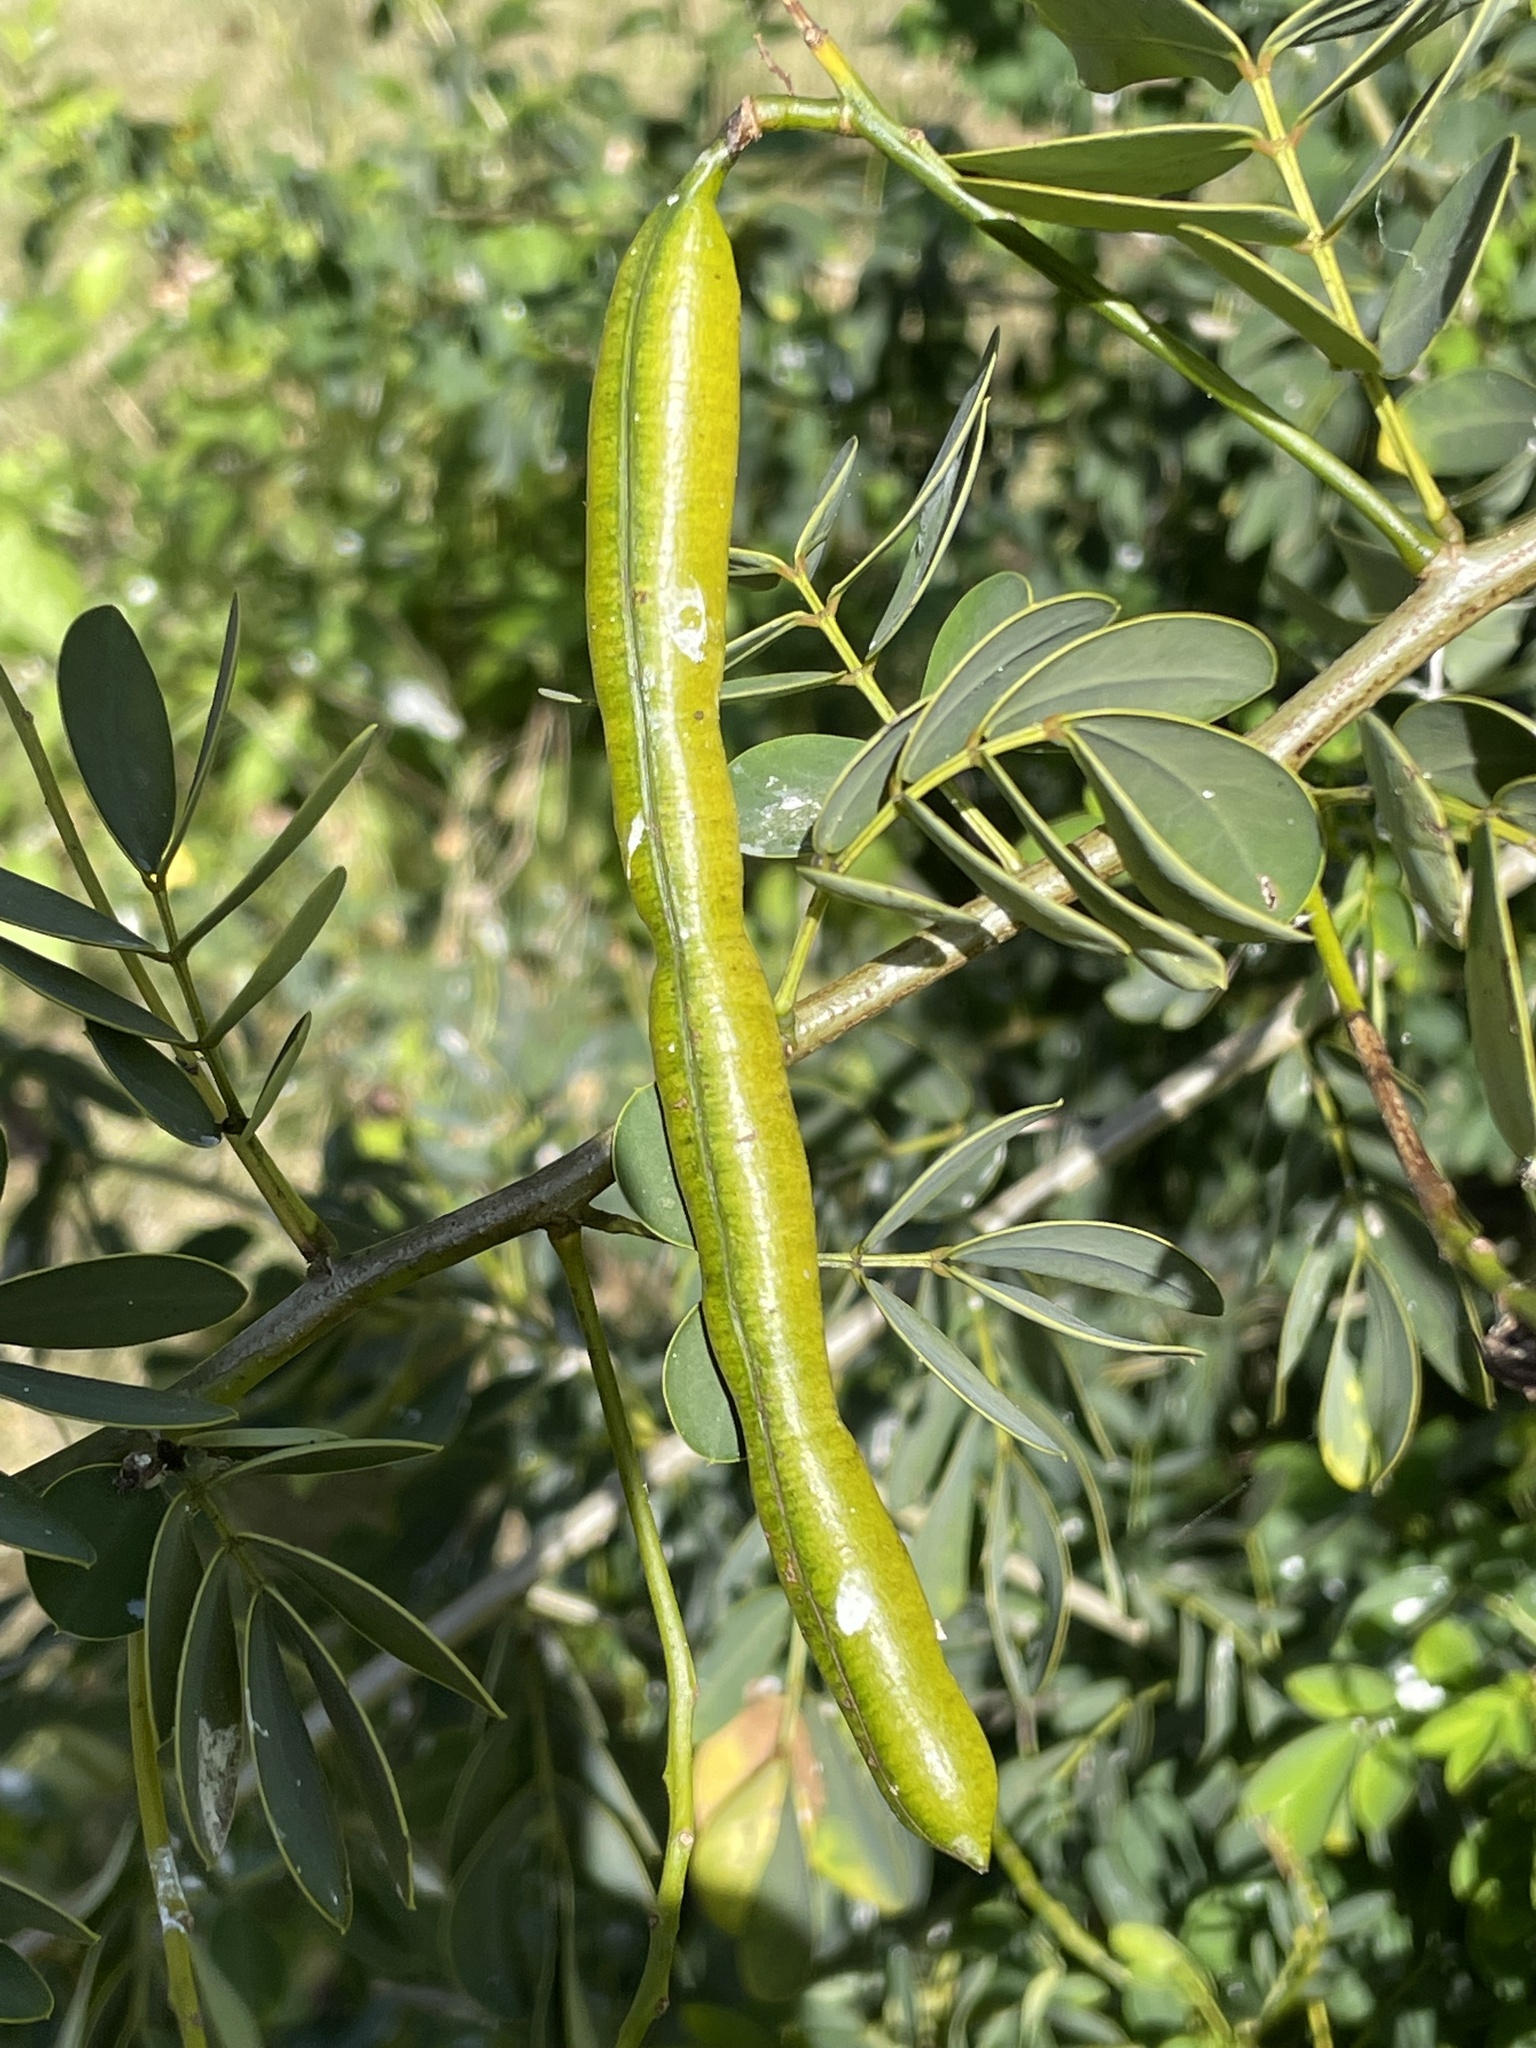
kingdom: Plantae
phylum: Tracheophyta
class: Magnoliopsida
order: Fabales
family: Fabaceae
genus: Senna
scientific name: Senna pendula
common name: Easter cassia
